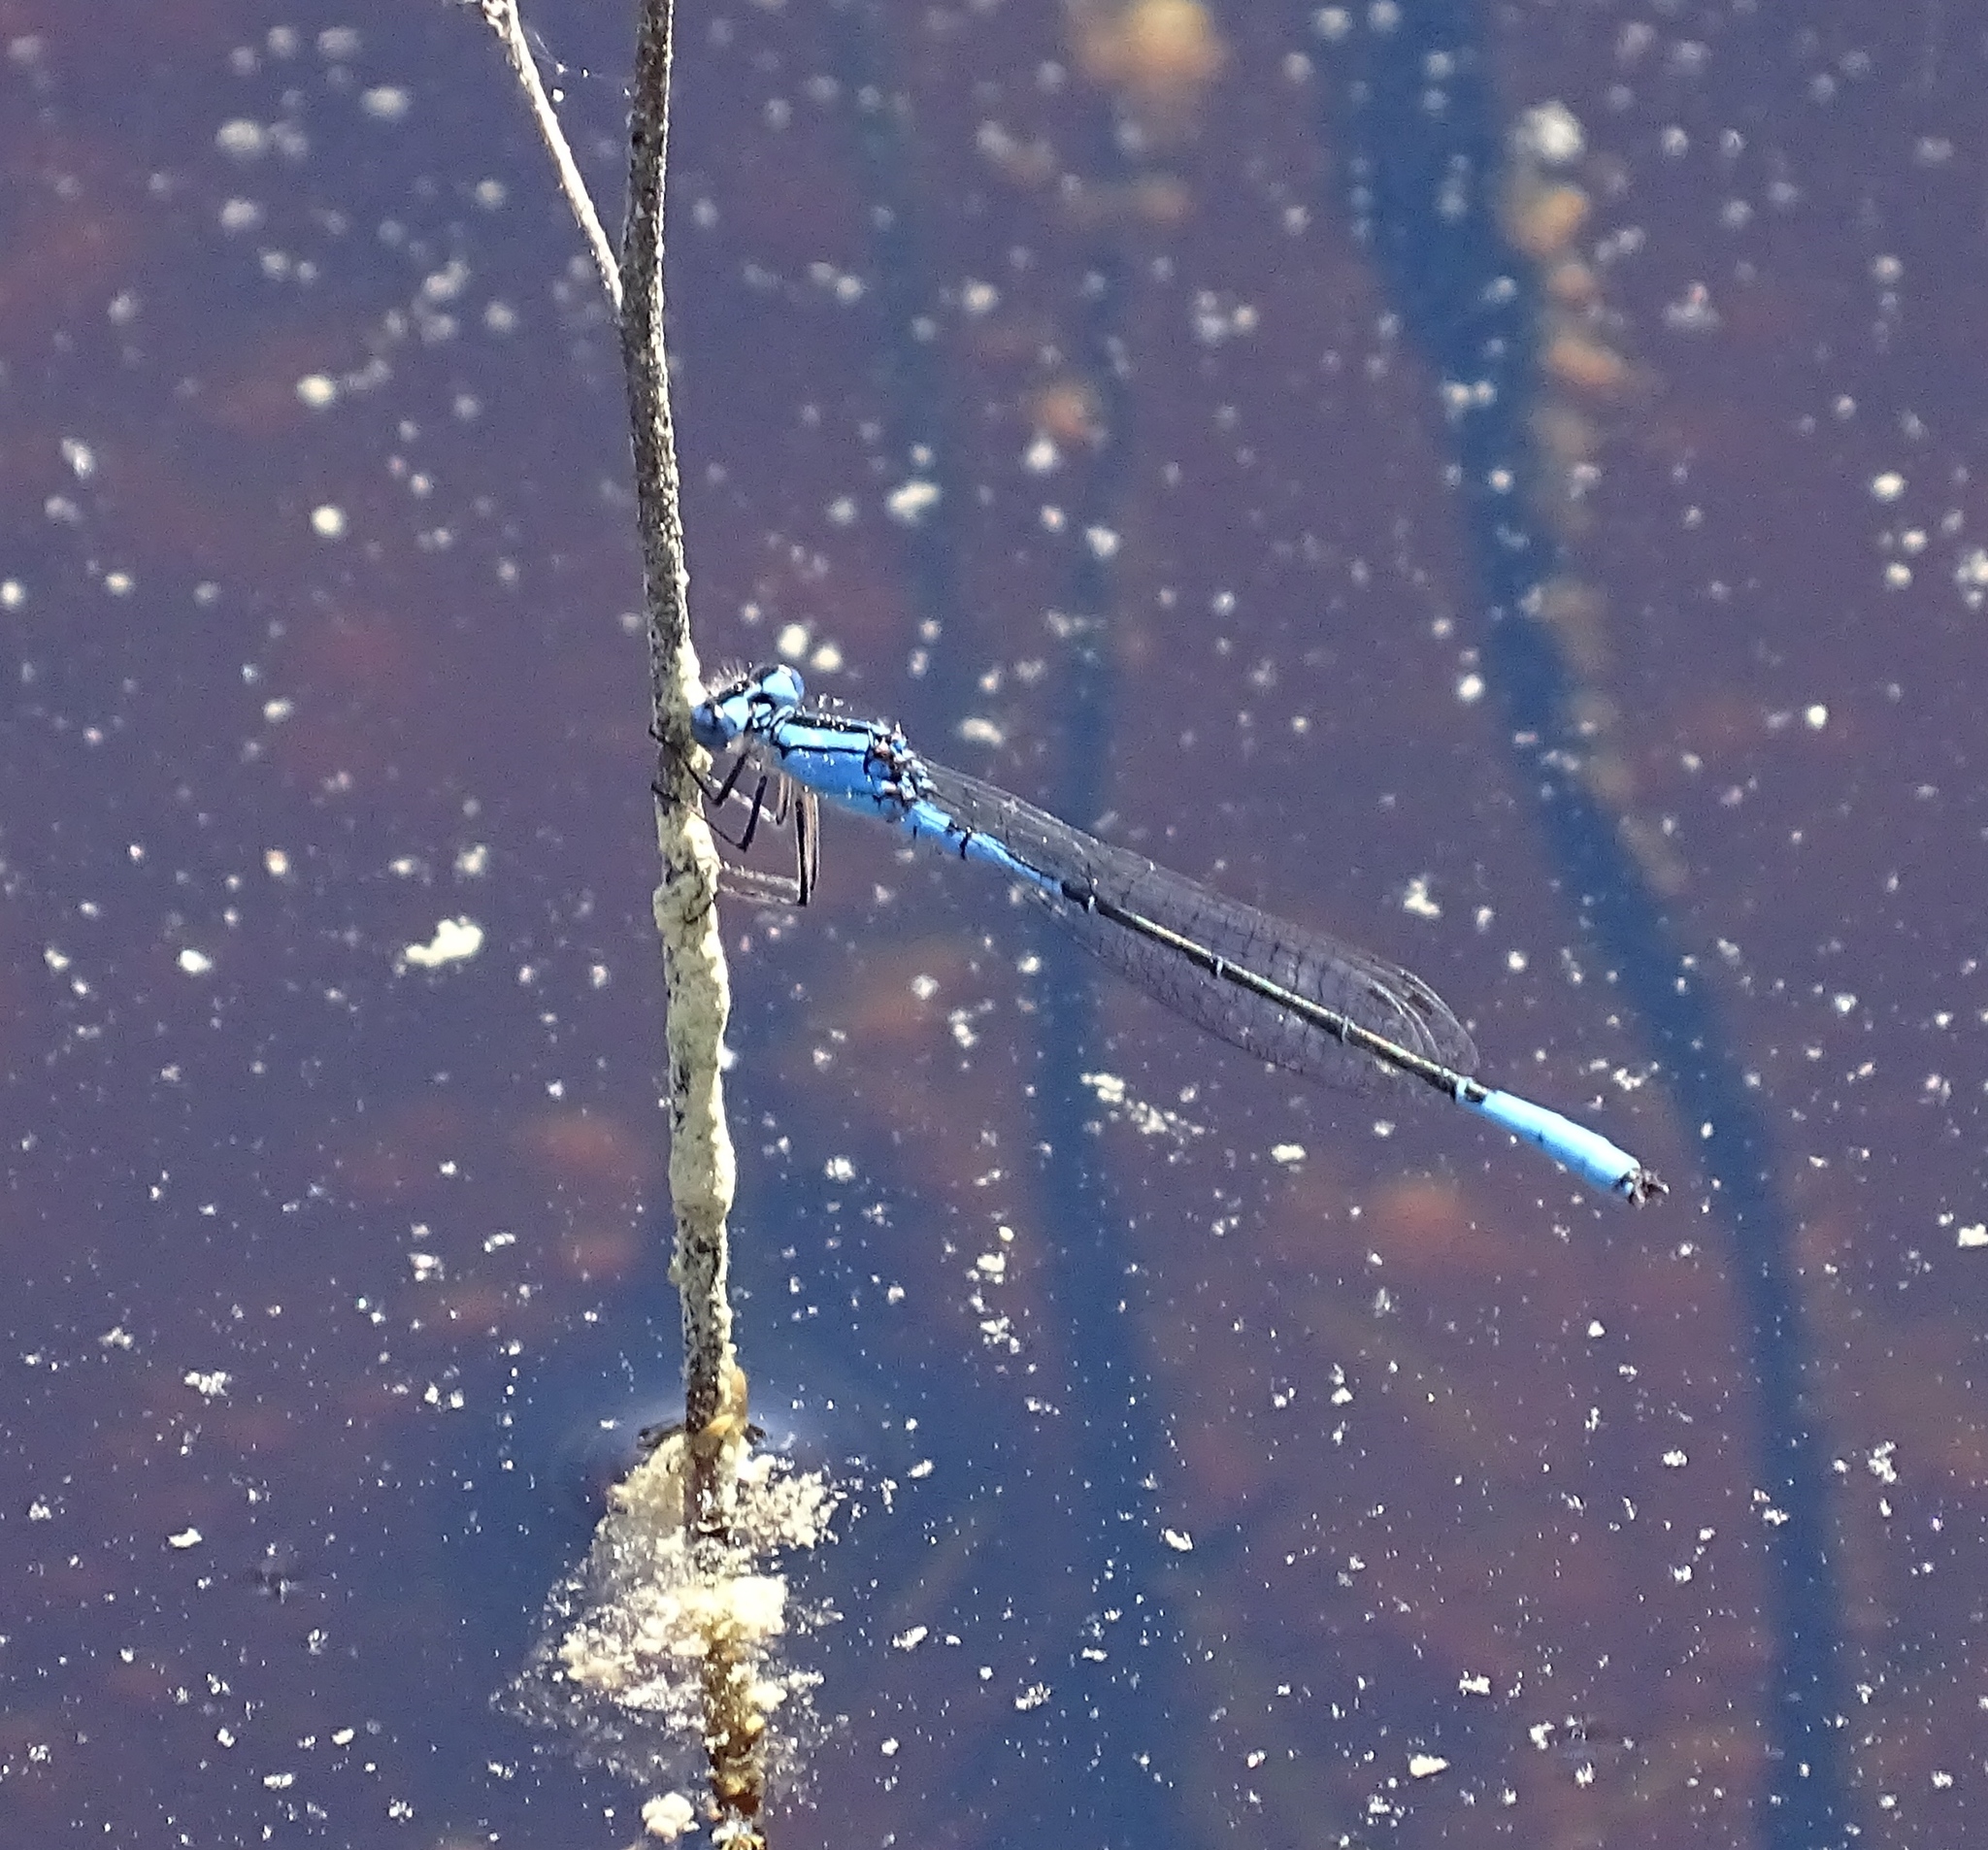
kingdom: Animalia
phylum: Arthropoda
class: Insecta
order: Odonata
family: Coenagrionidae
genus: Enallagma
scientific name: Enallagma aspersum
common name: Azure bluet
